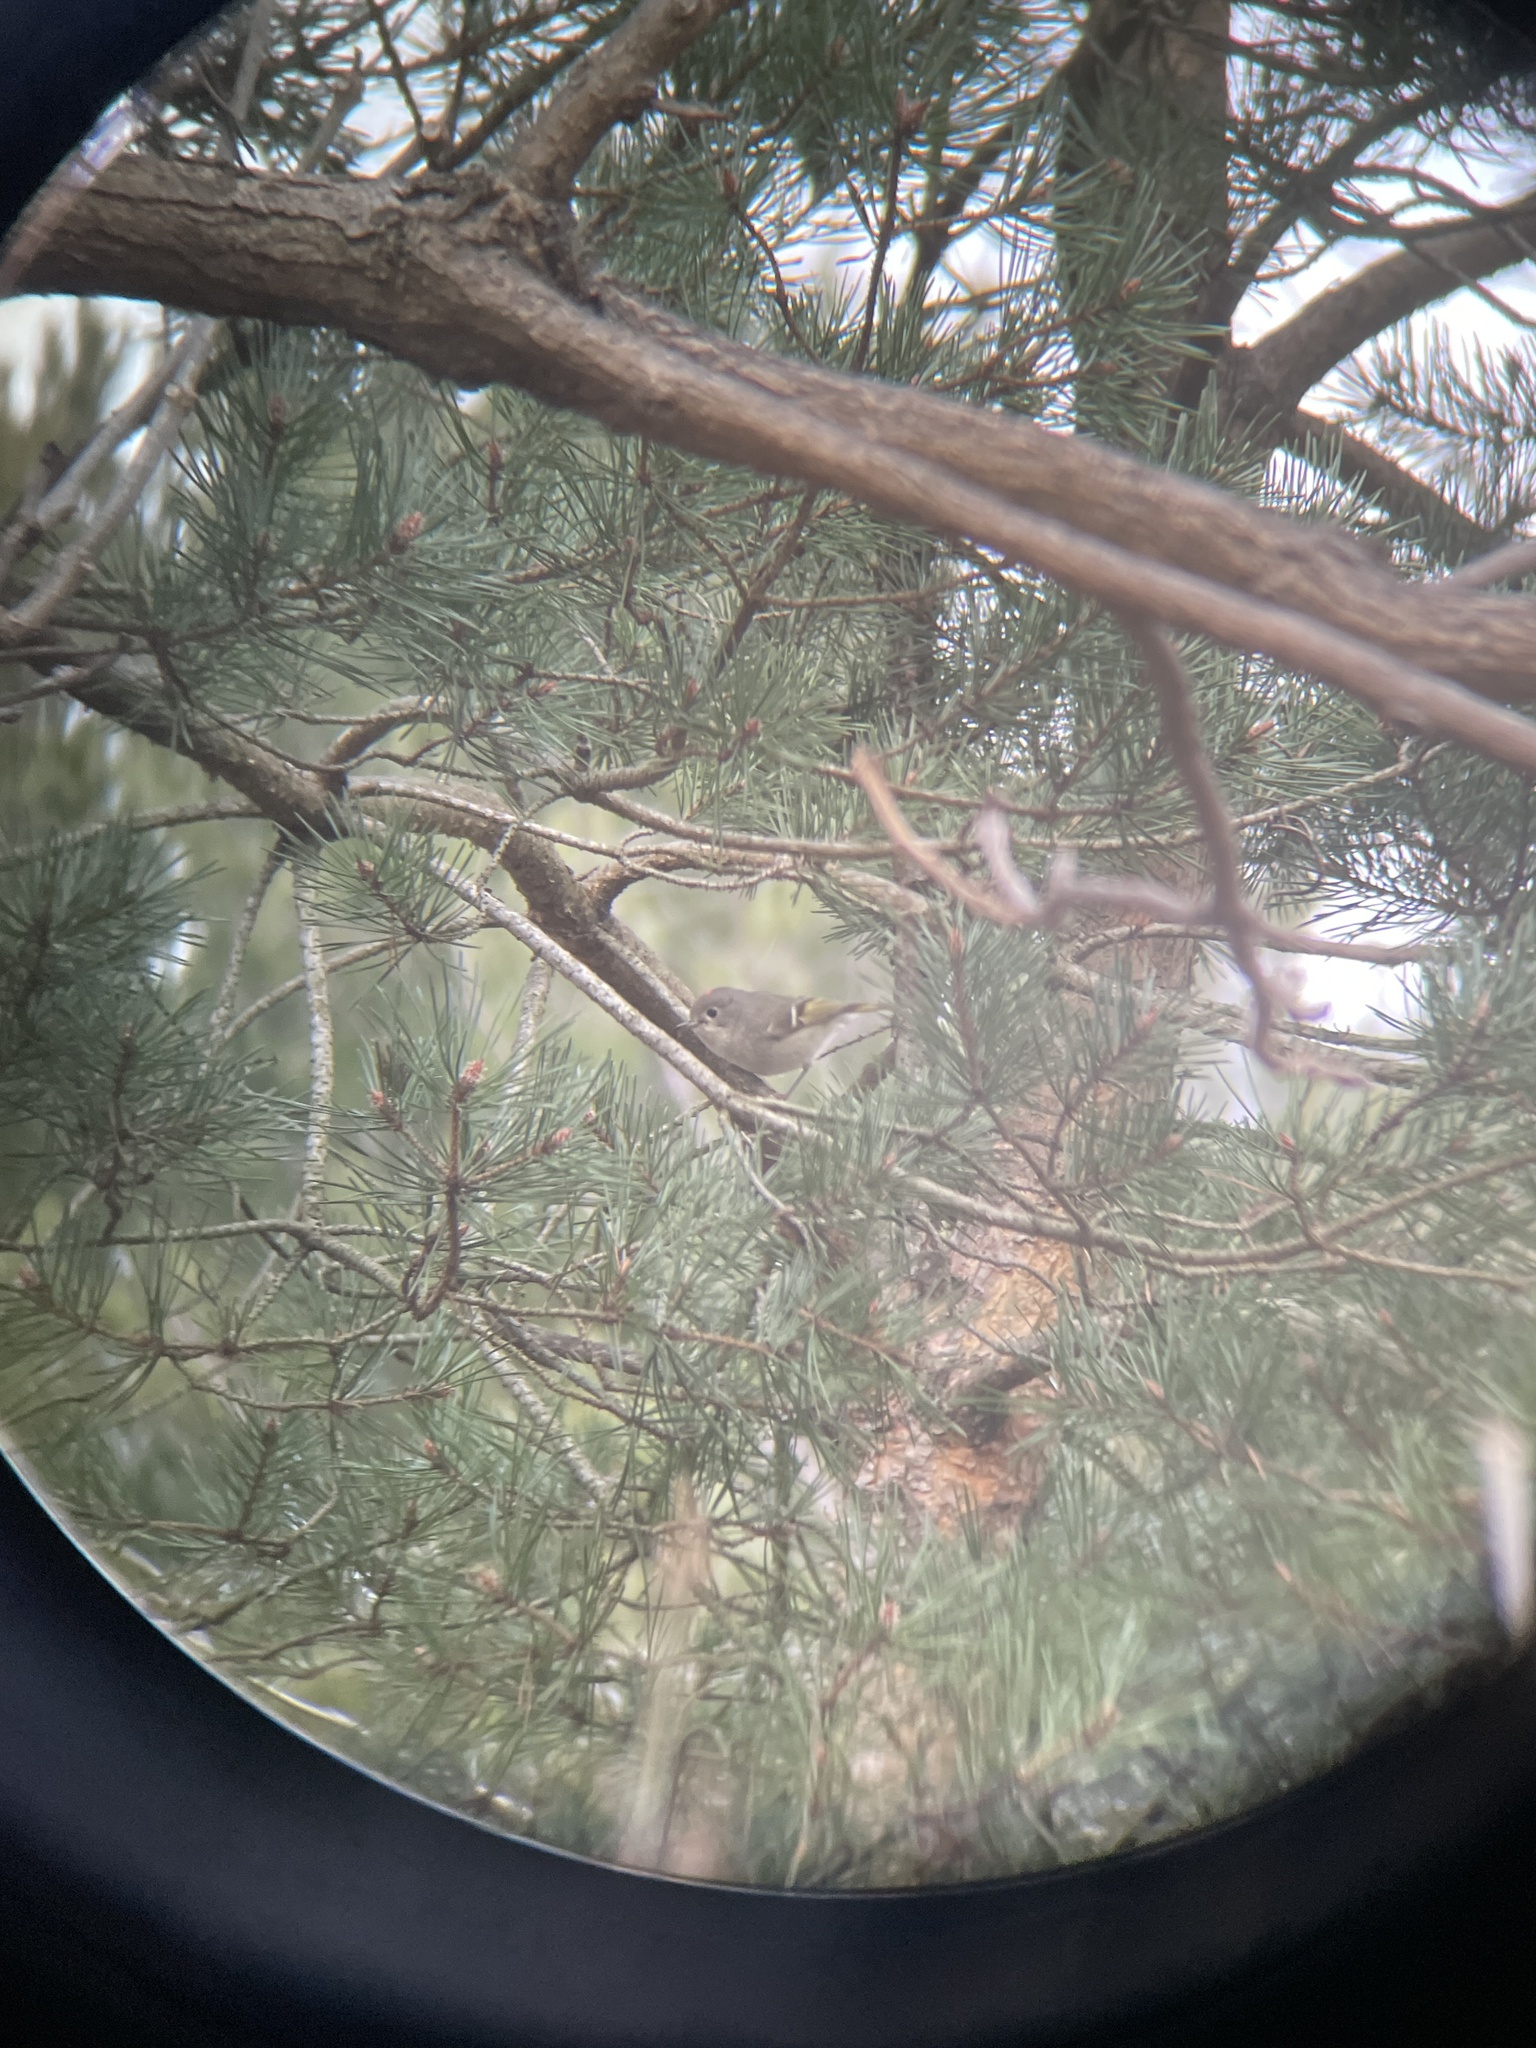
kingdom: Animalia
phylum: Chordata
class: Aves
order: Passeriformes
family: Regulidae
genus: Regulus
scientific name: Regulus calendula
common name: Ruby-crowned kinglet
